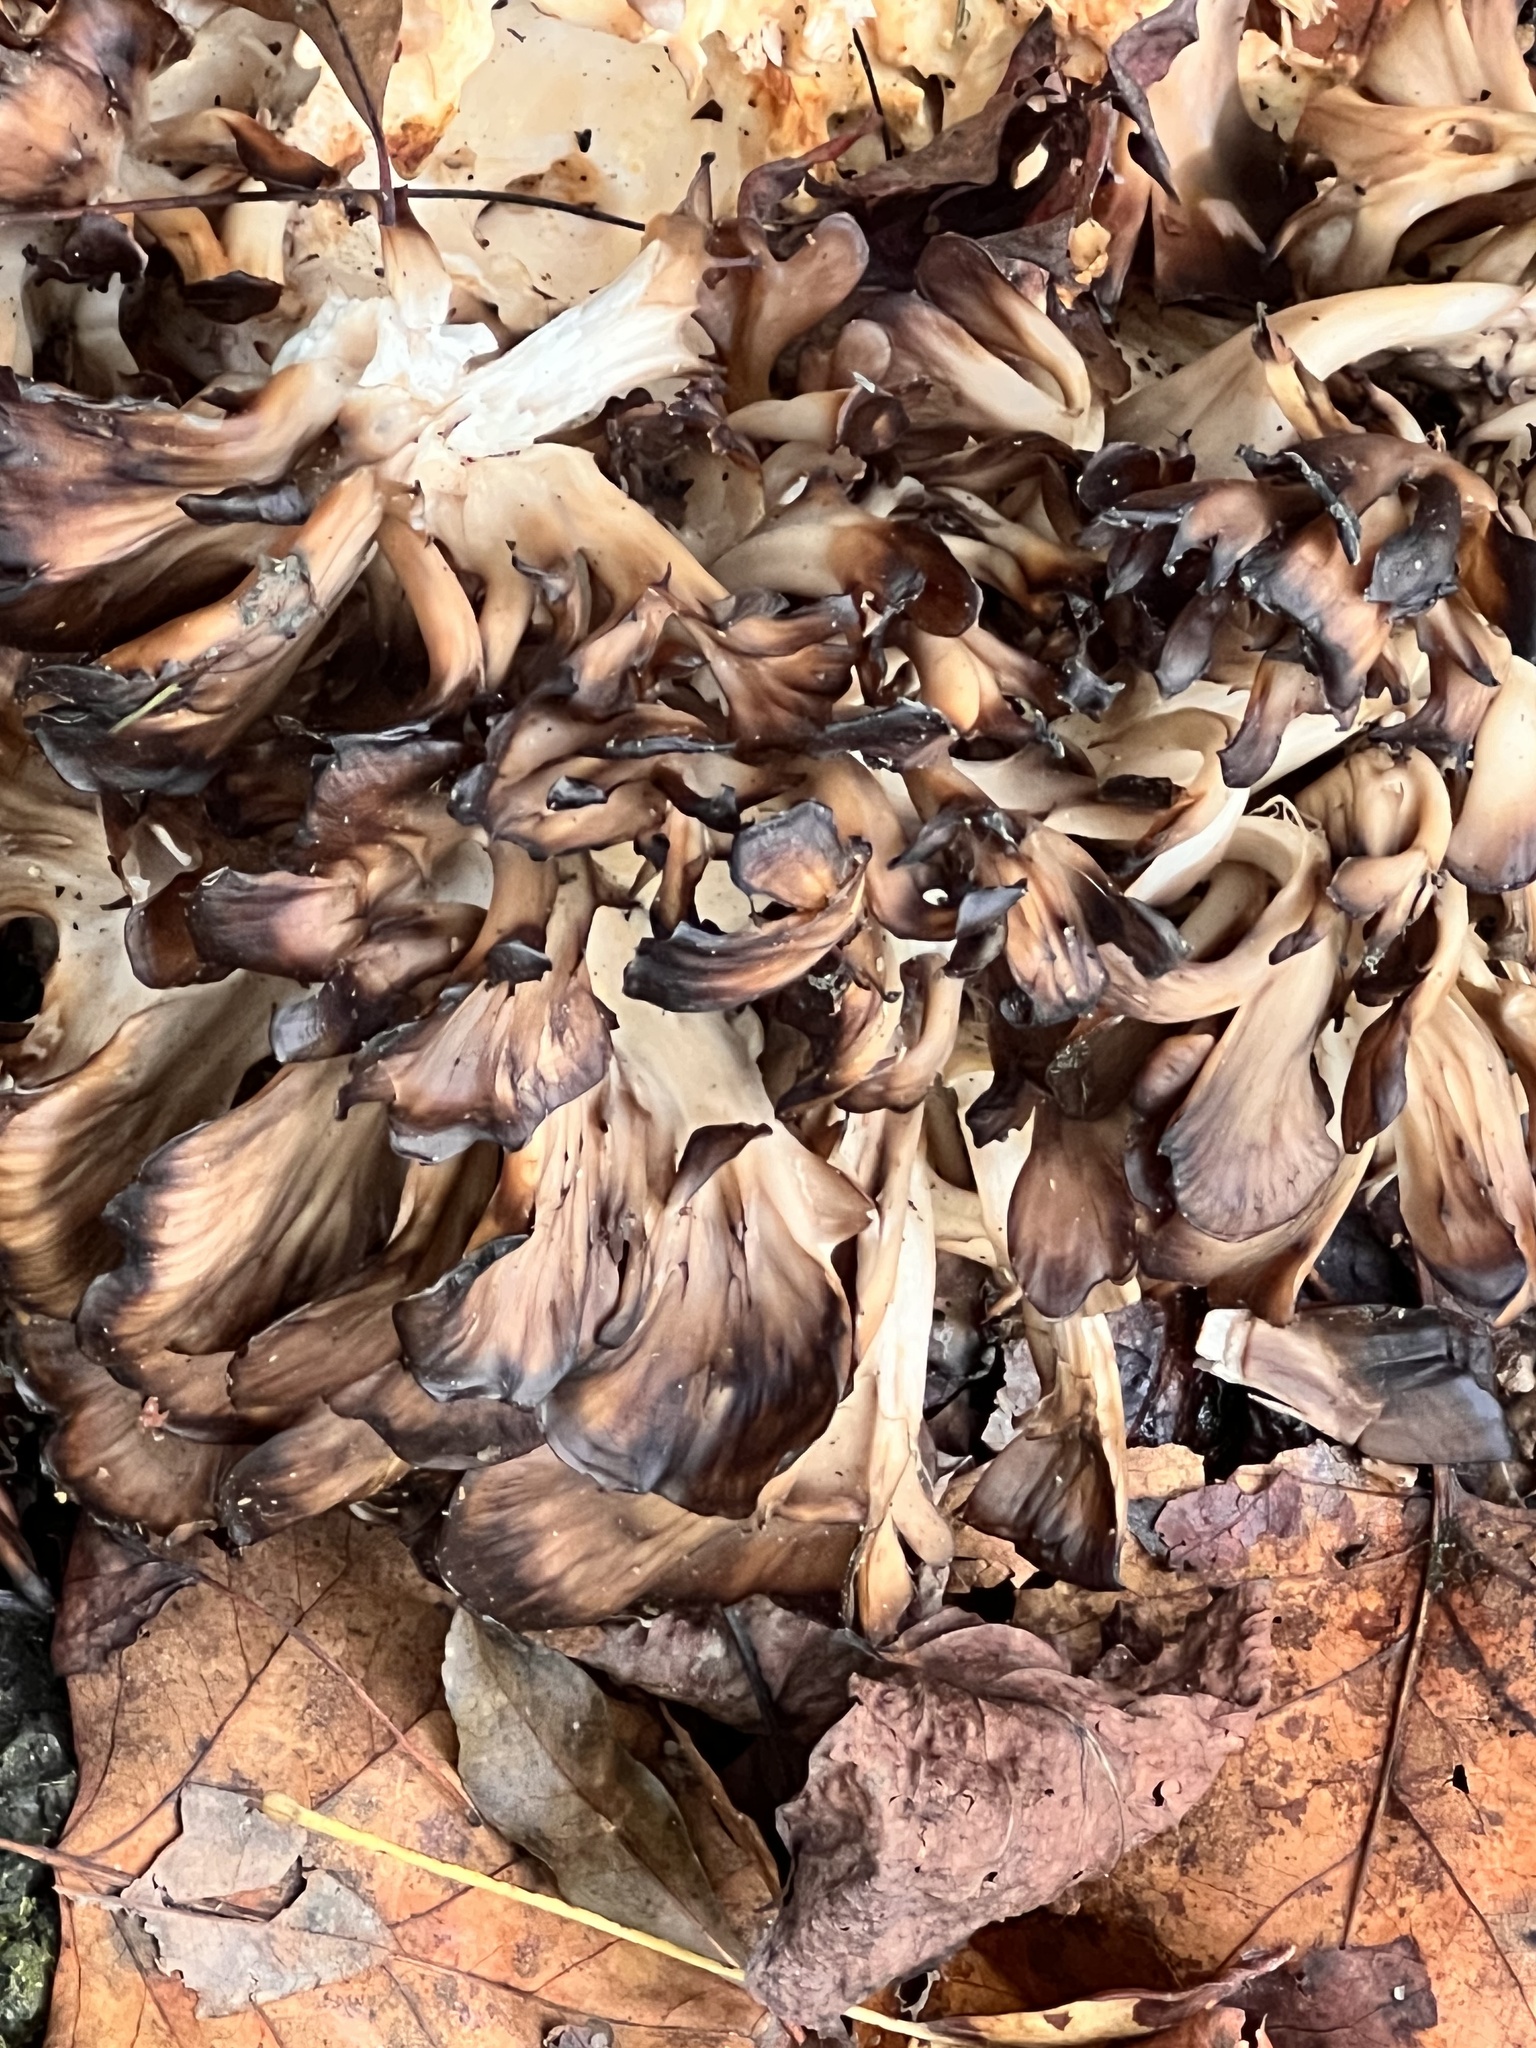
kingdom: Fungi
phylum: Basidiomycota
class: Agaricomycetes
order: Polyporales
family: Grifolaceae
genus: Grifola
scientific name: Grifola frondosa
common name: Hen of the woods
